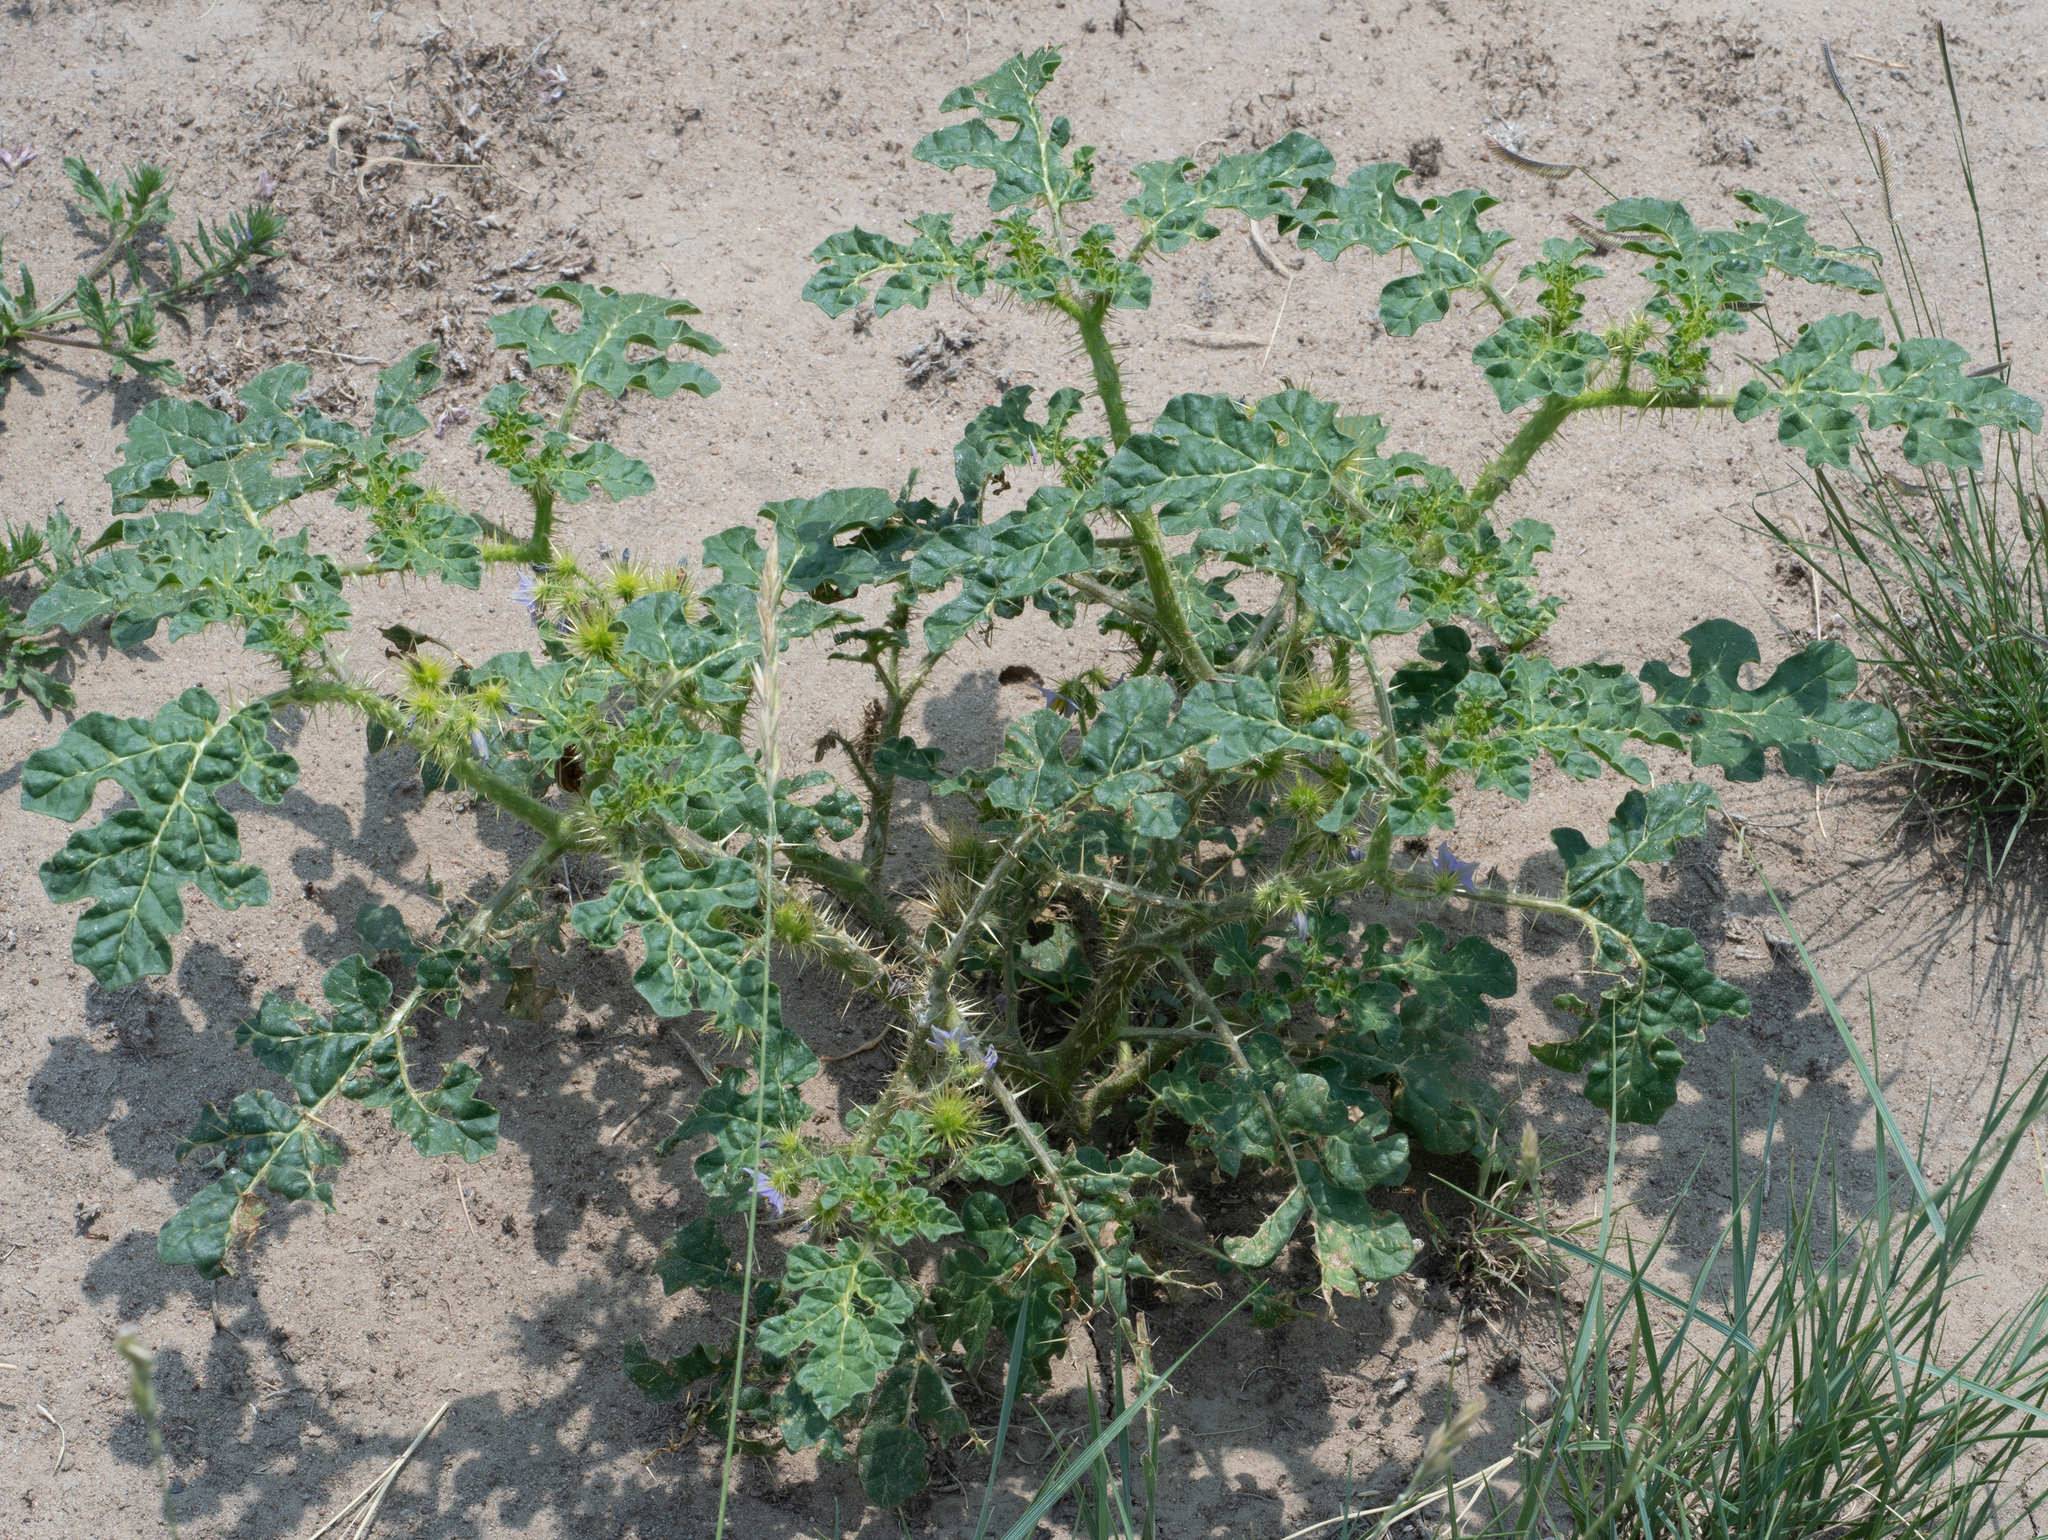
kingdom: Plantae
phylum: Tracheophyta
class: Magnoliopsida
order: Solanales
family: Solanaceae
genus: Solanum
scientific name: Solanum angustifolium
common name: Buffalobur nightshade
